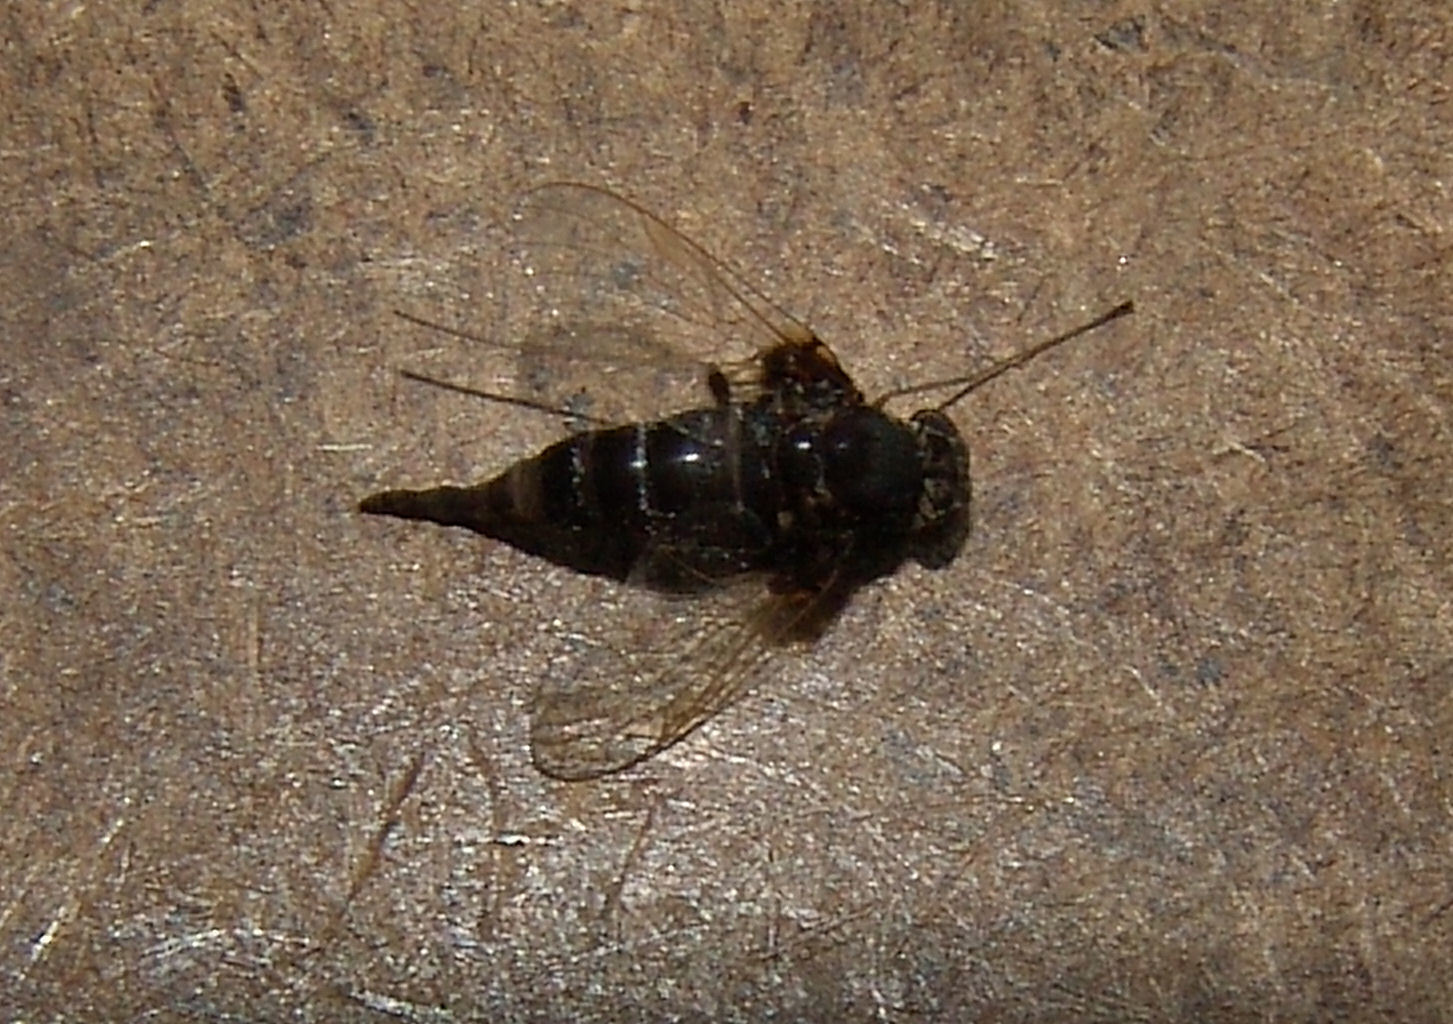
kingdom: Animalia
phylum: Arthropoda
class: Insecta
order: Diptera
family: Rhagionidae
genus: Chrysopilus
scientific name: Chrysopilus basilaris
